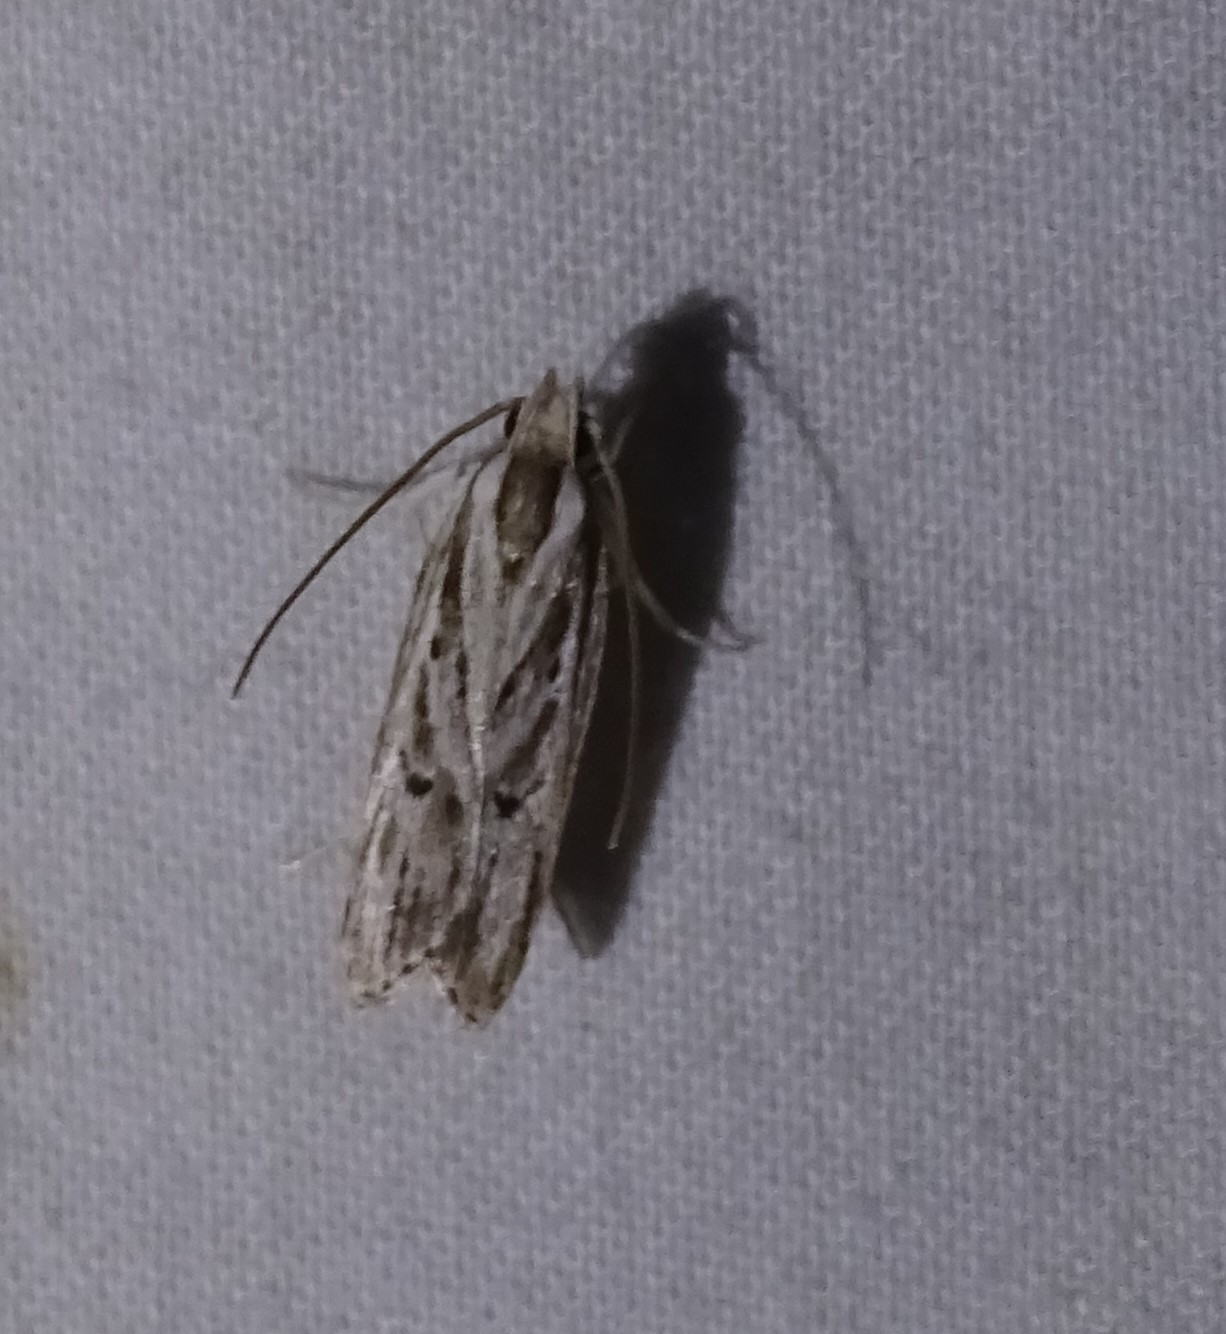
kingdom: Animalia
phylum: Arthropoda
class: Insecta
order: Lepidoptera
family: Depressariidae
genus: Eupragia
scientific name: Eupragia hospita
